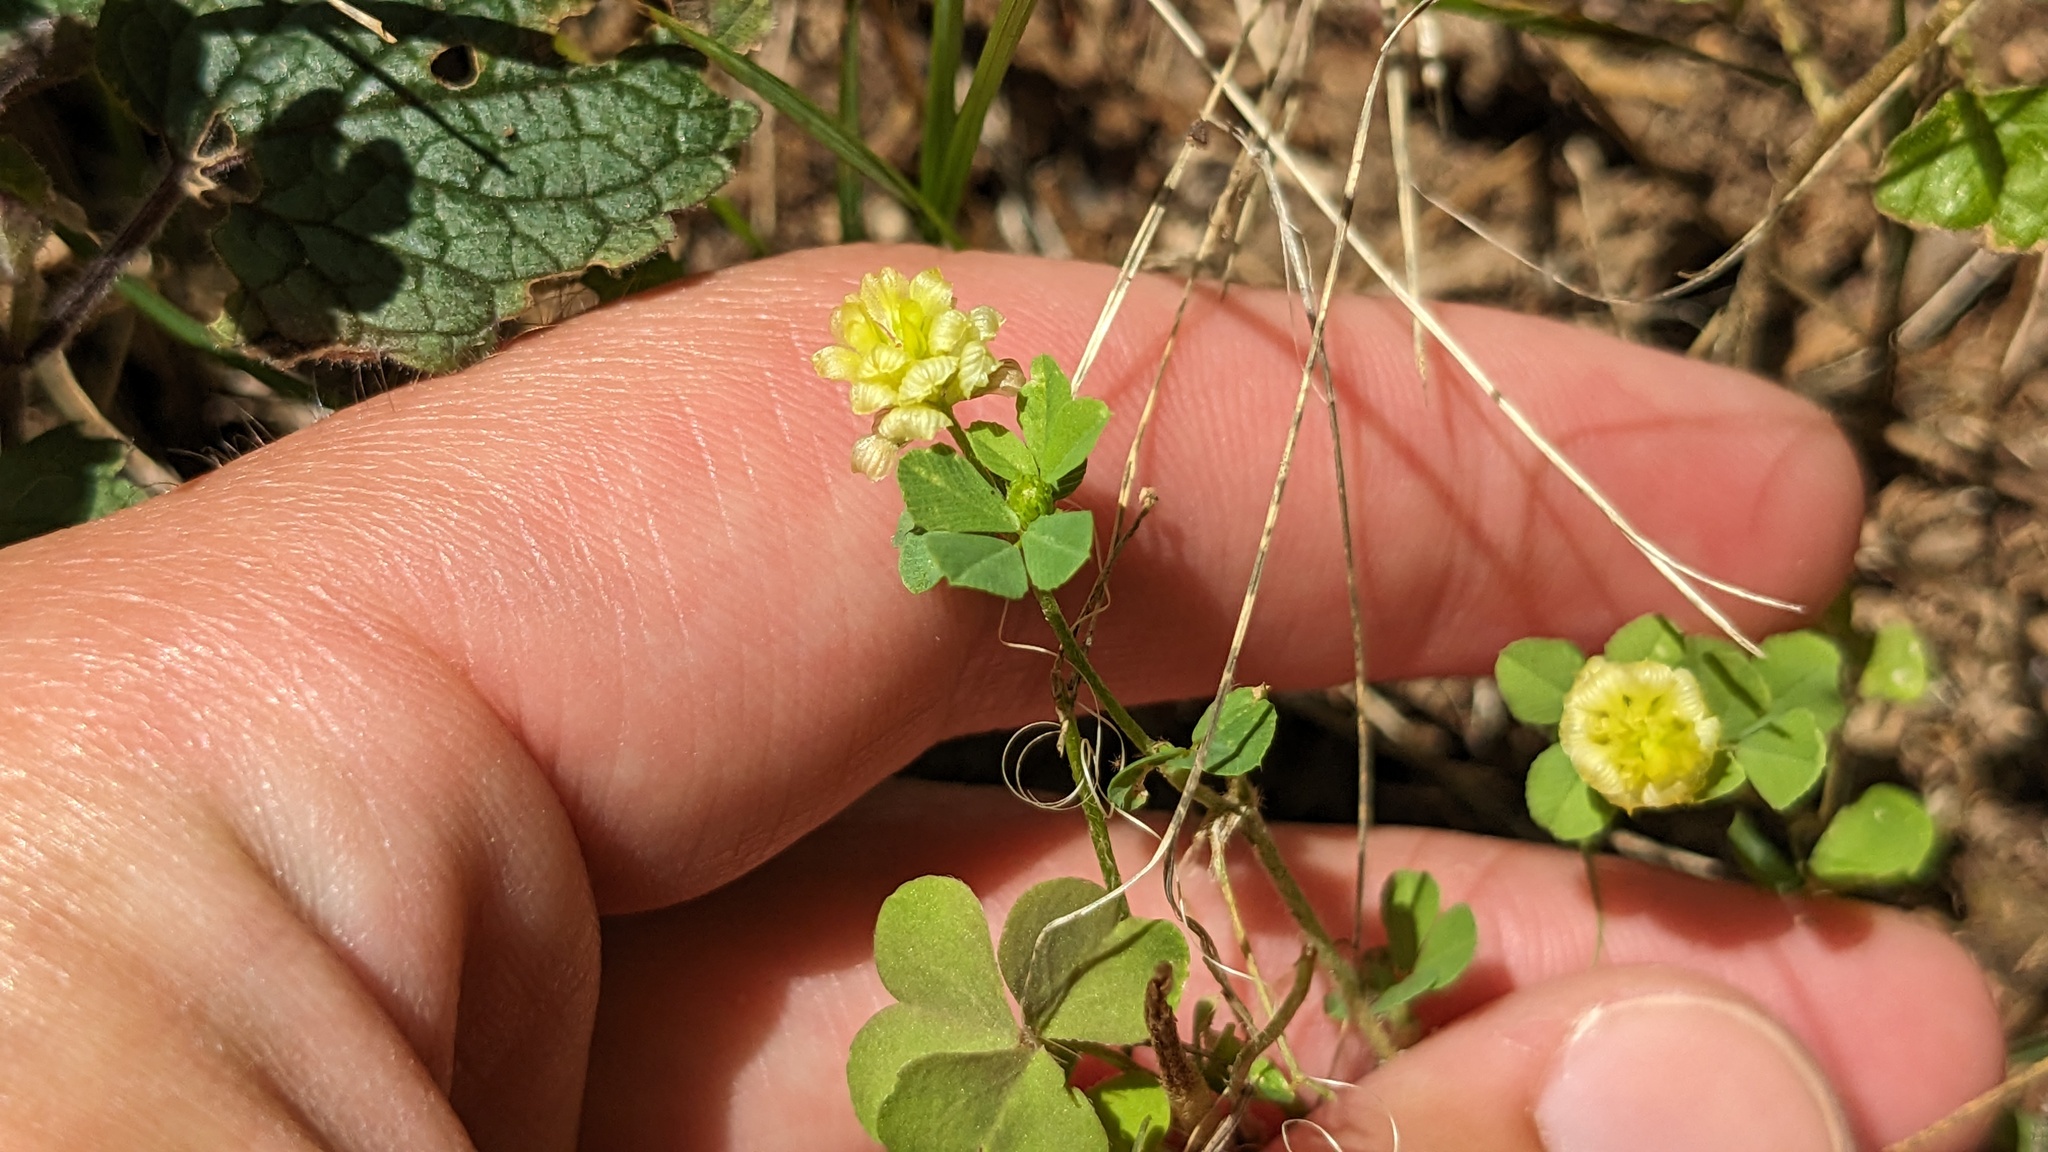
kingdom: Plantae
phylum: Tracheophyta
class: Magnoliopsida
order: Fabales
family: Fabaceae
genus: Trifolium
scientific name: Trifolium campestre
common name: Field clover
